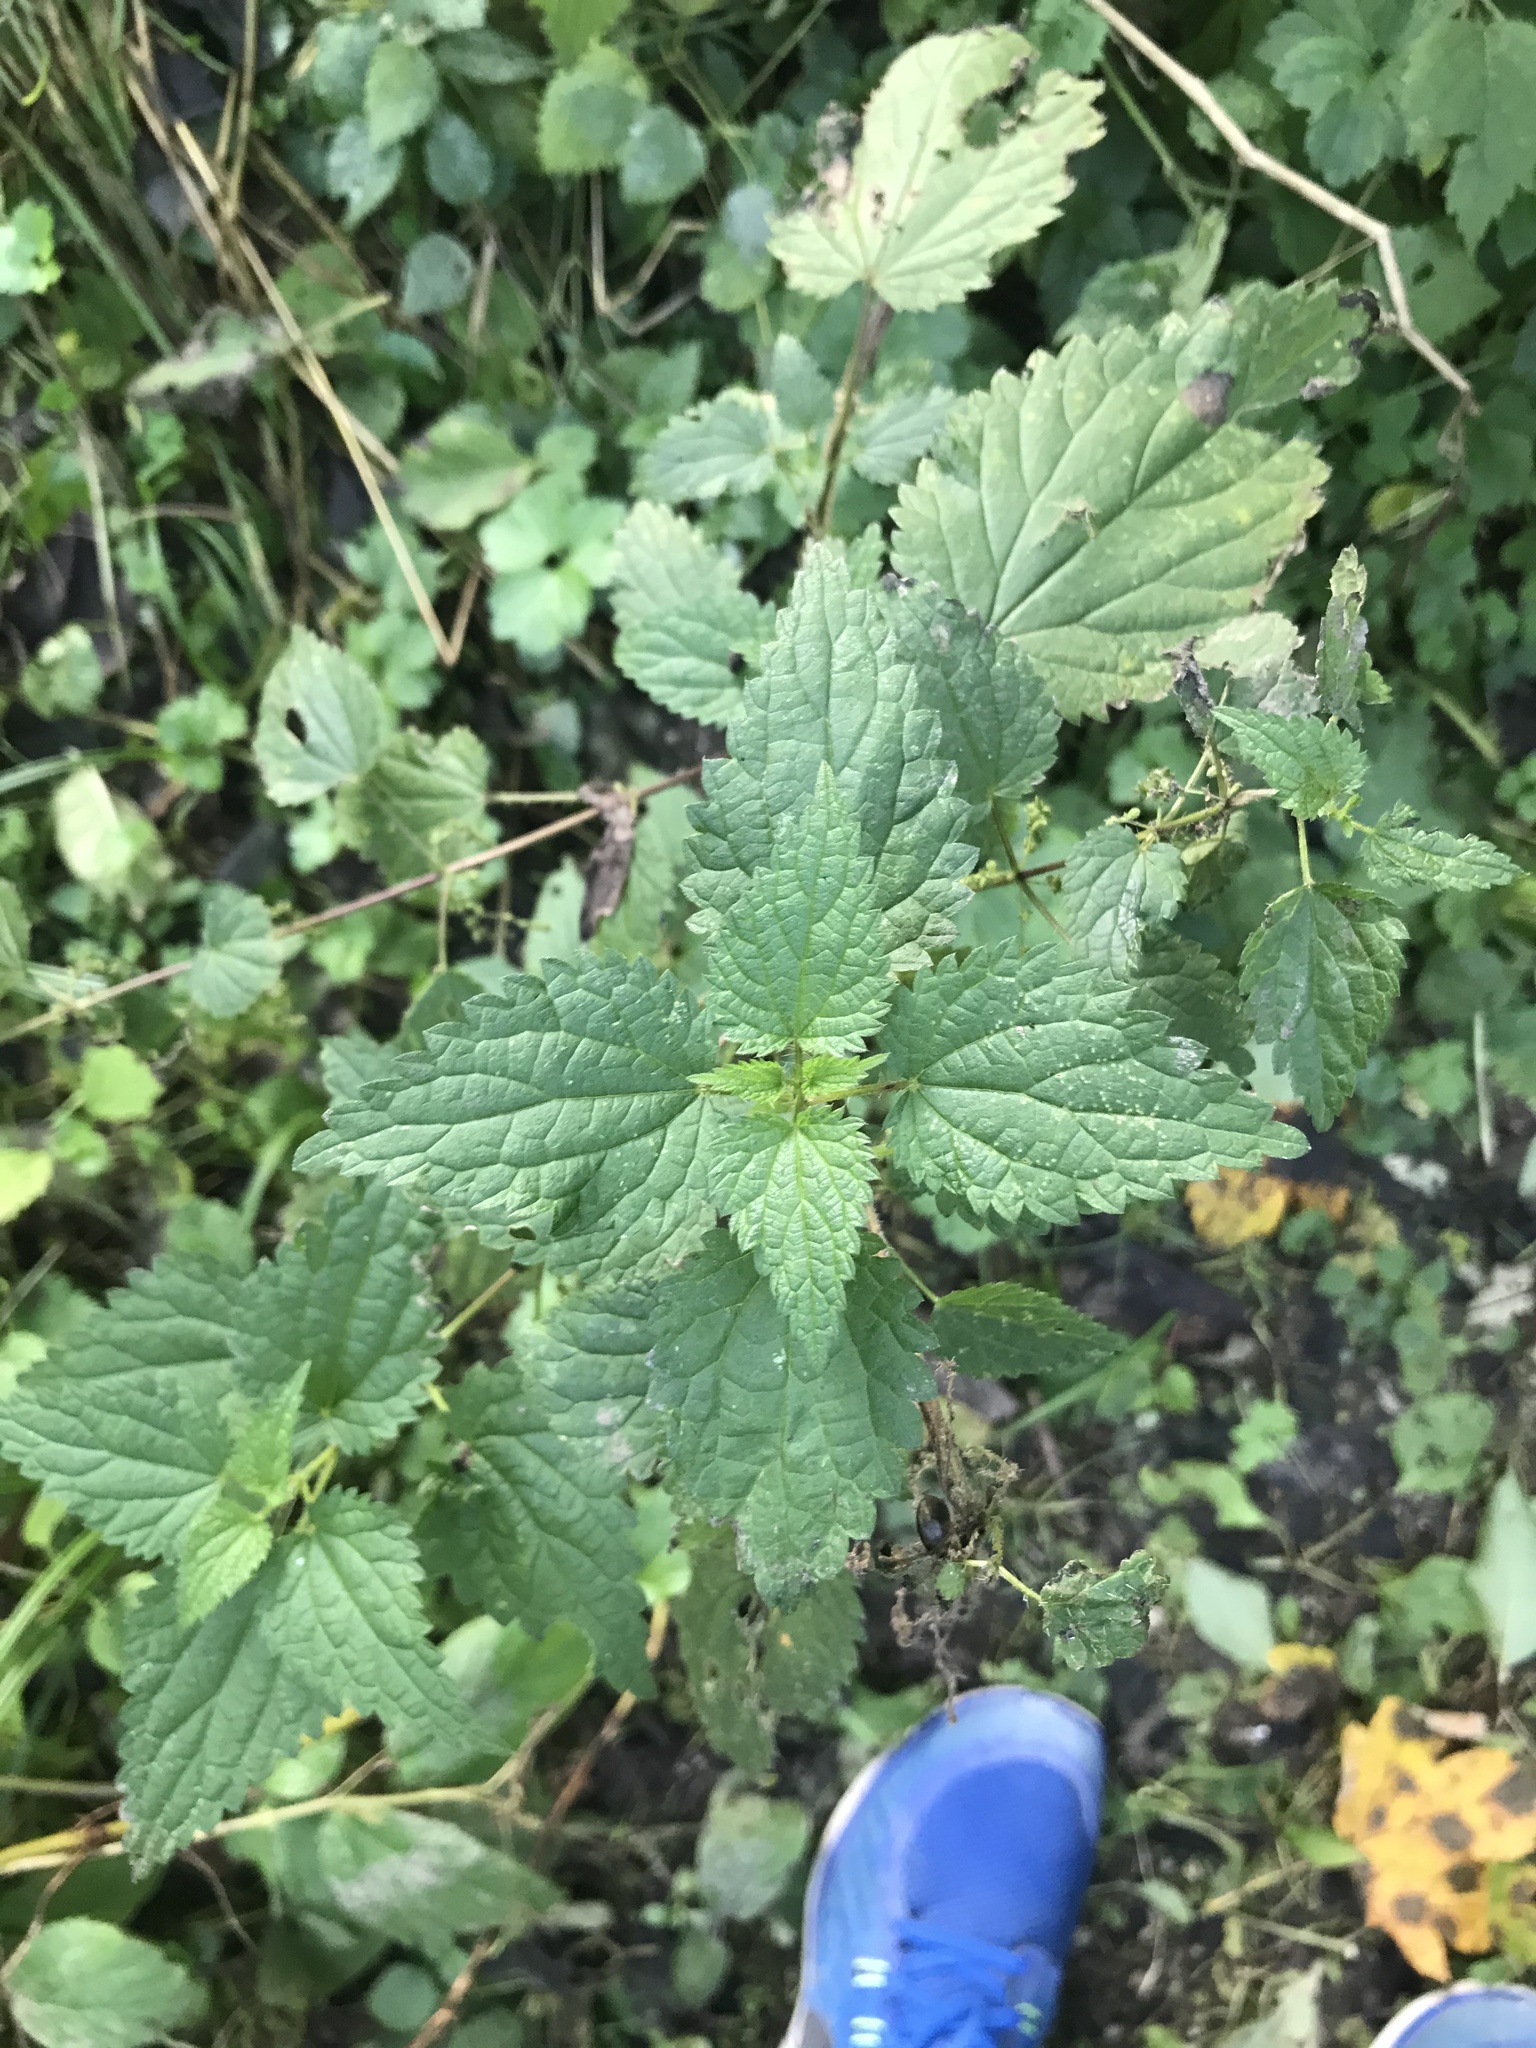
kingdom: Plantae
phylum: Tracheophyta
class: Magnoliopsida
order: Rosales
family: Urticaceae
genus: Urtica
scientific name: Urtica dioica
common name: Common nettle
